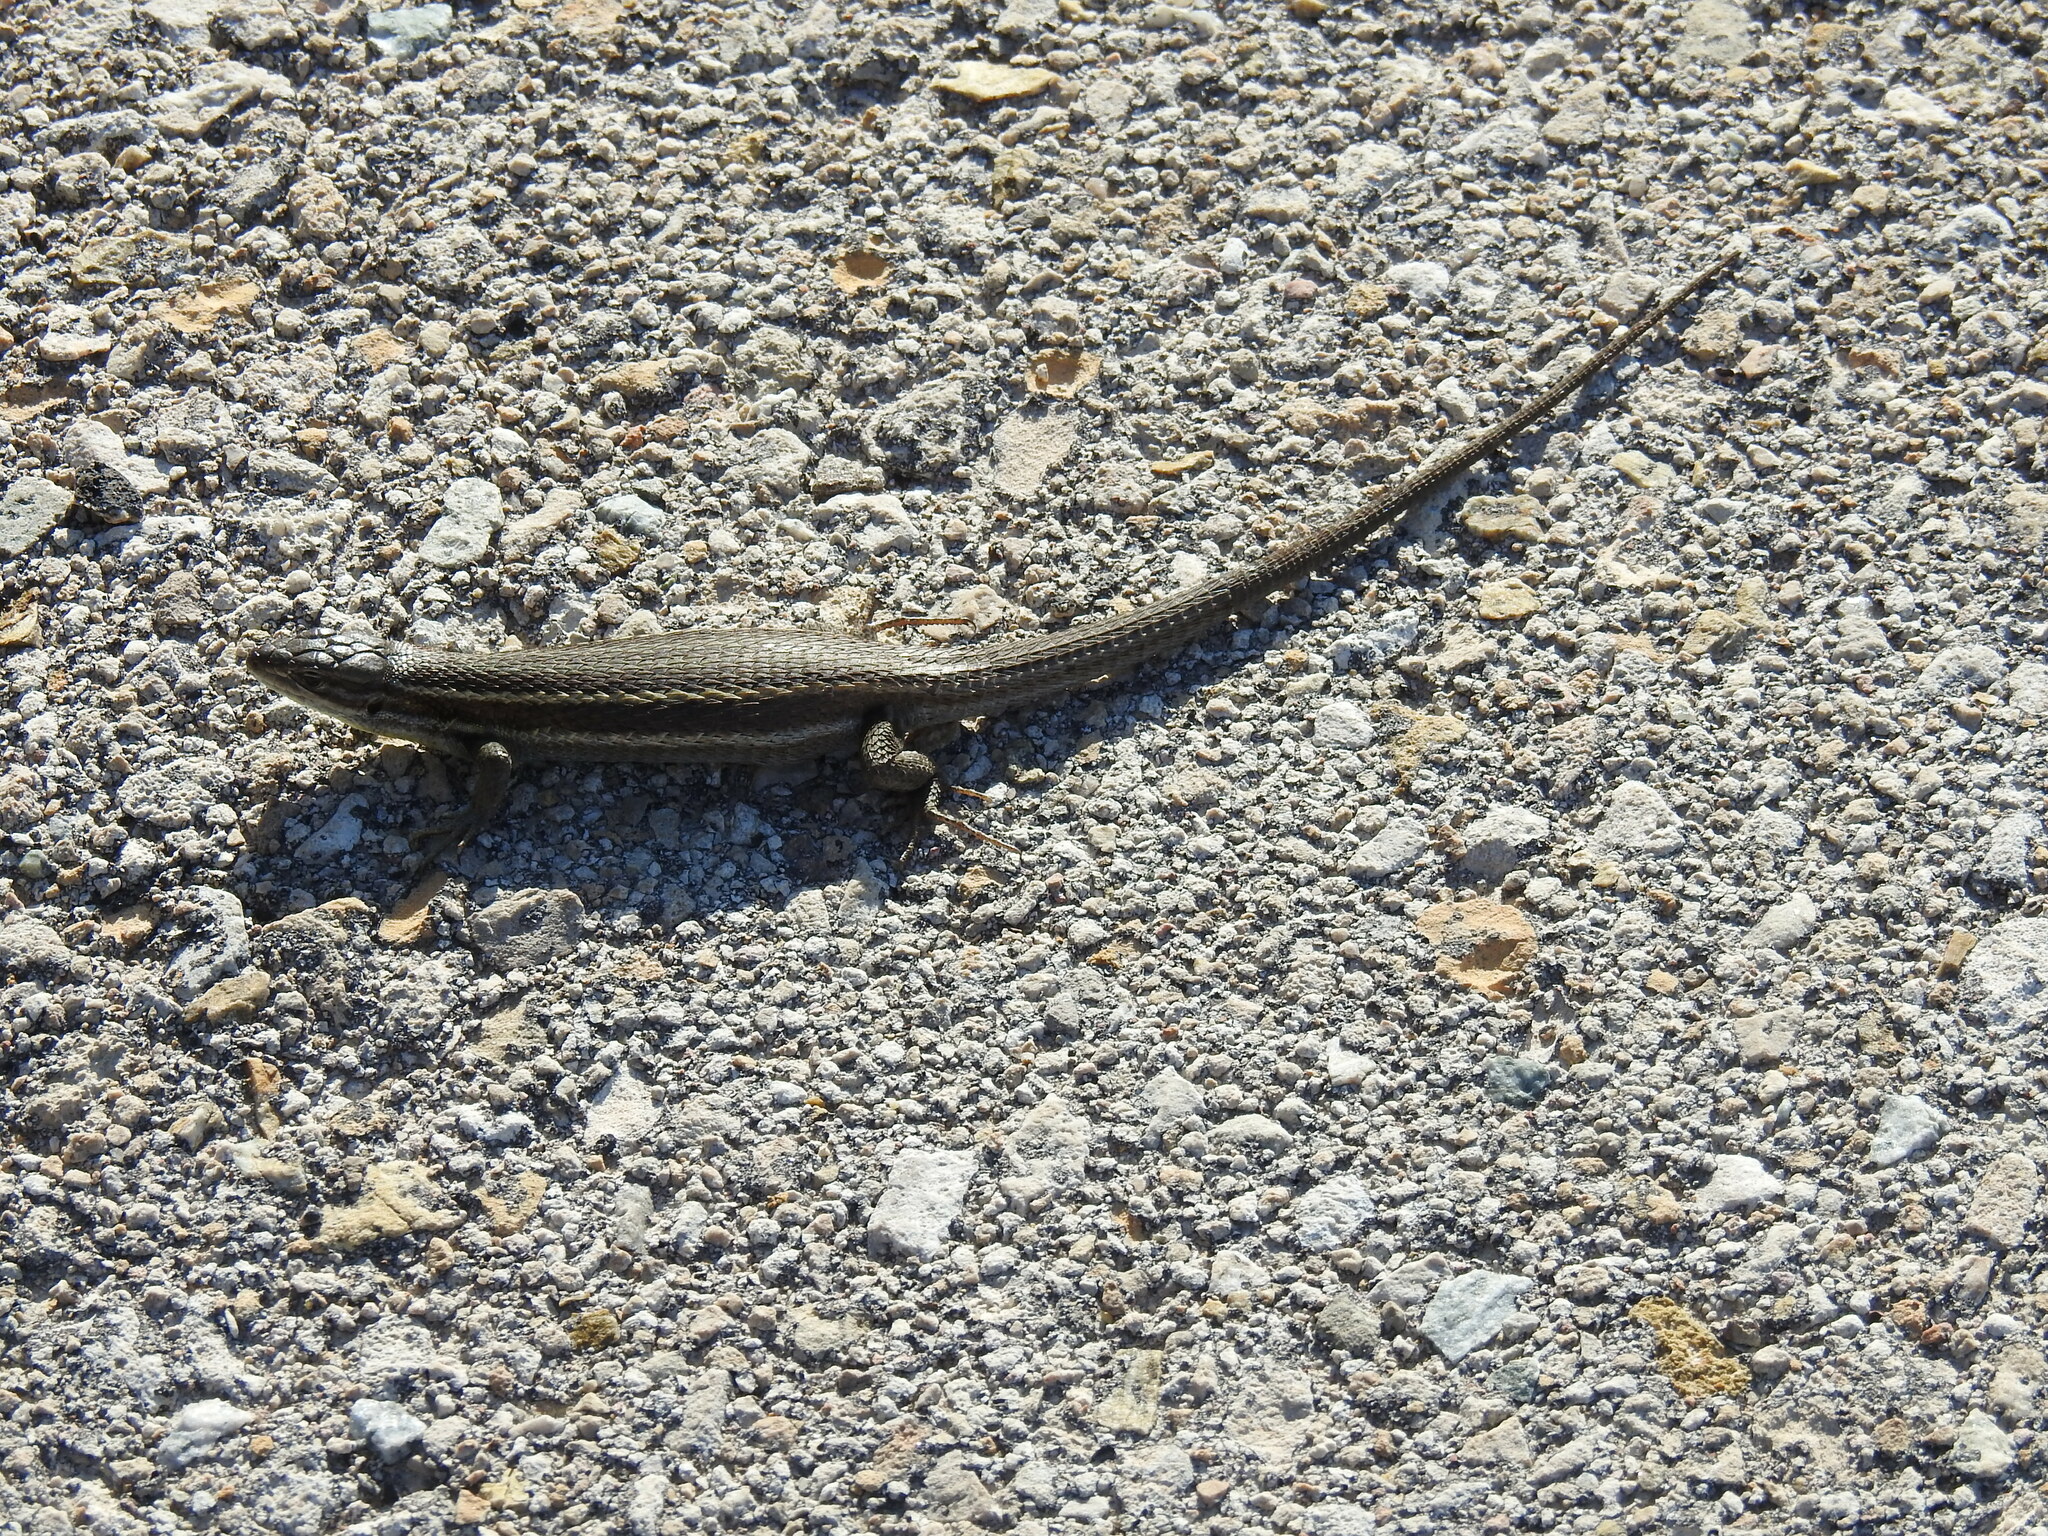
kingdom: Animalia
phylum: Chordata
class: Squamata
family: Lacertidae
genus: Psammodromus
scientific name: Psammodromus algirus
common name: Algerian psammodromus
